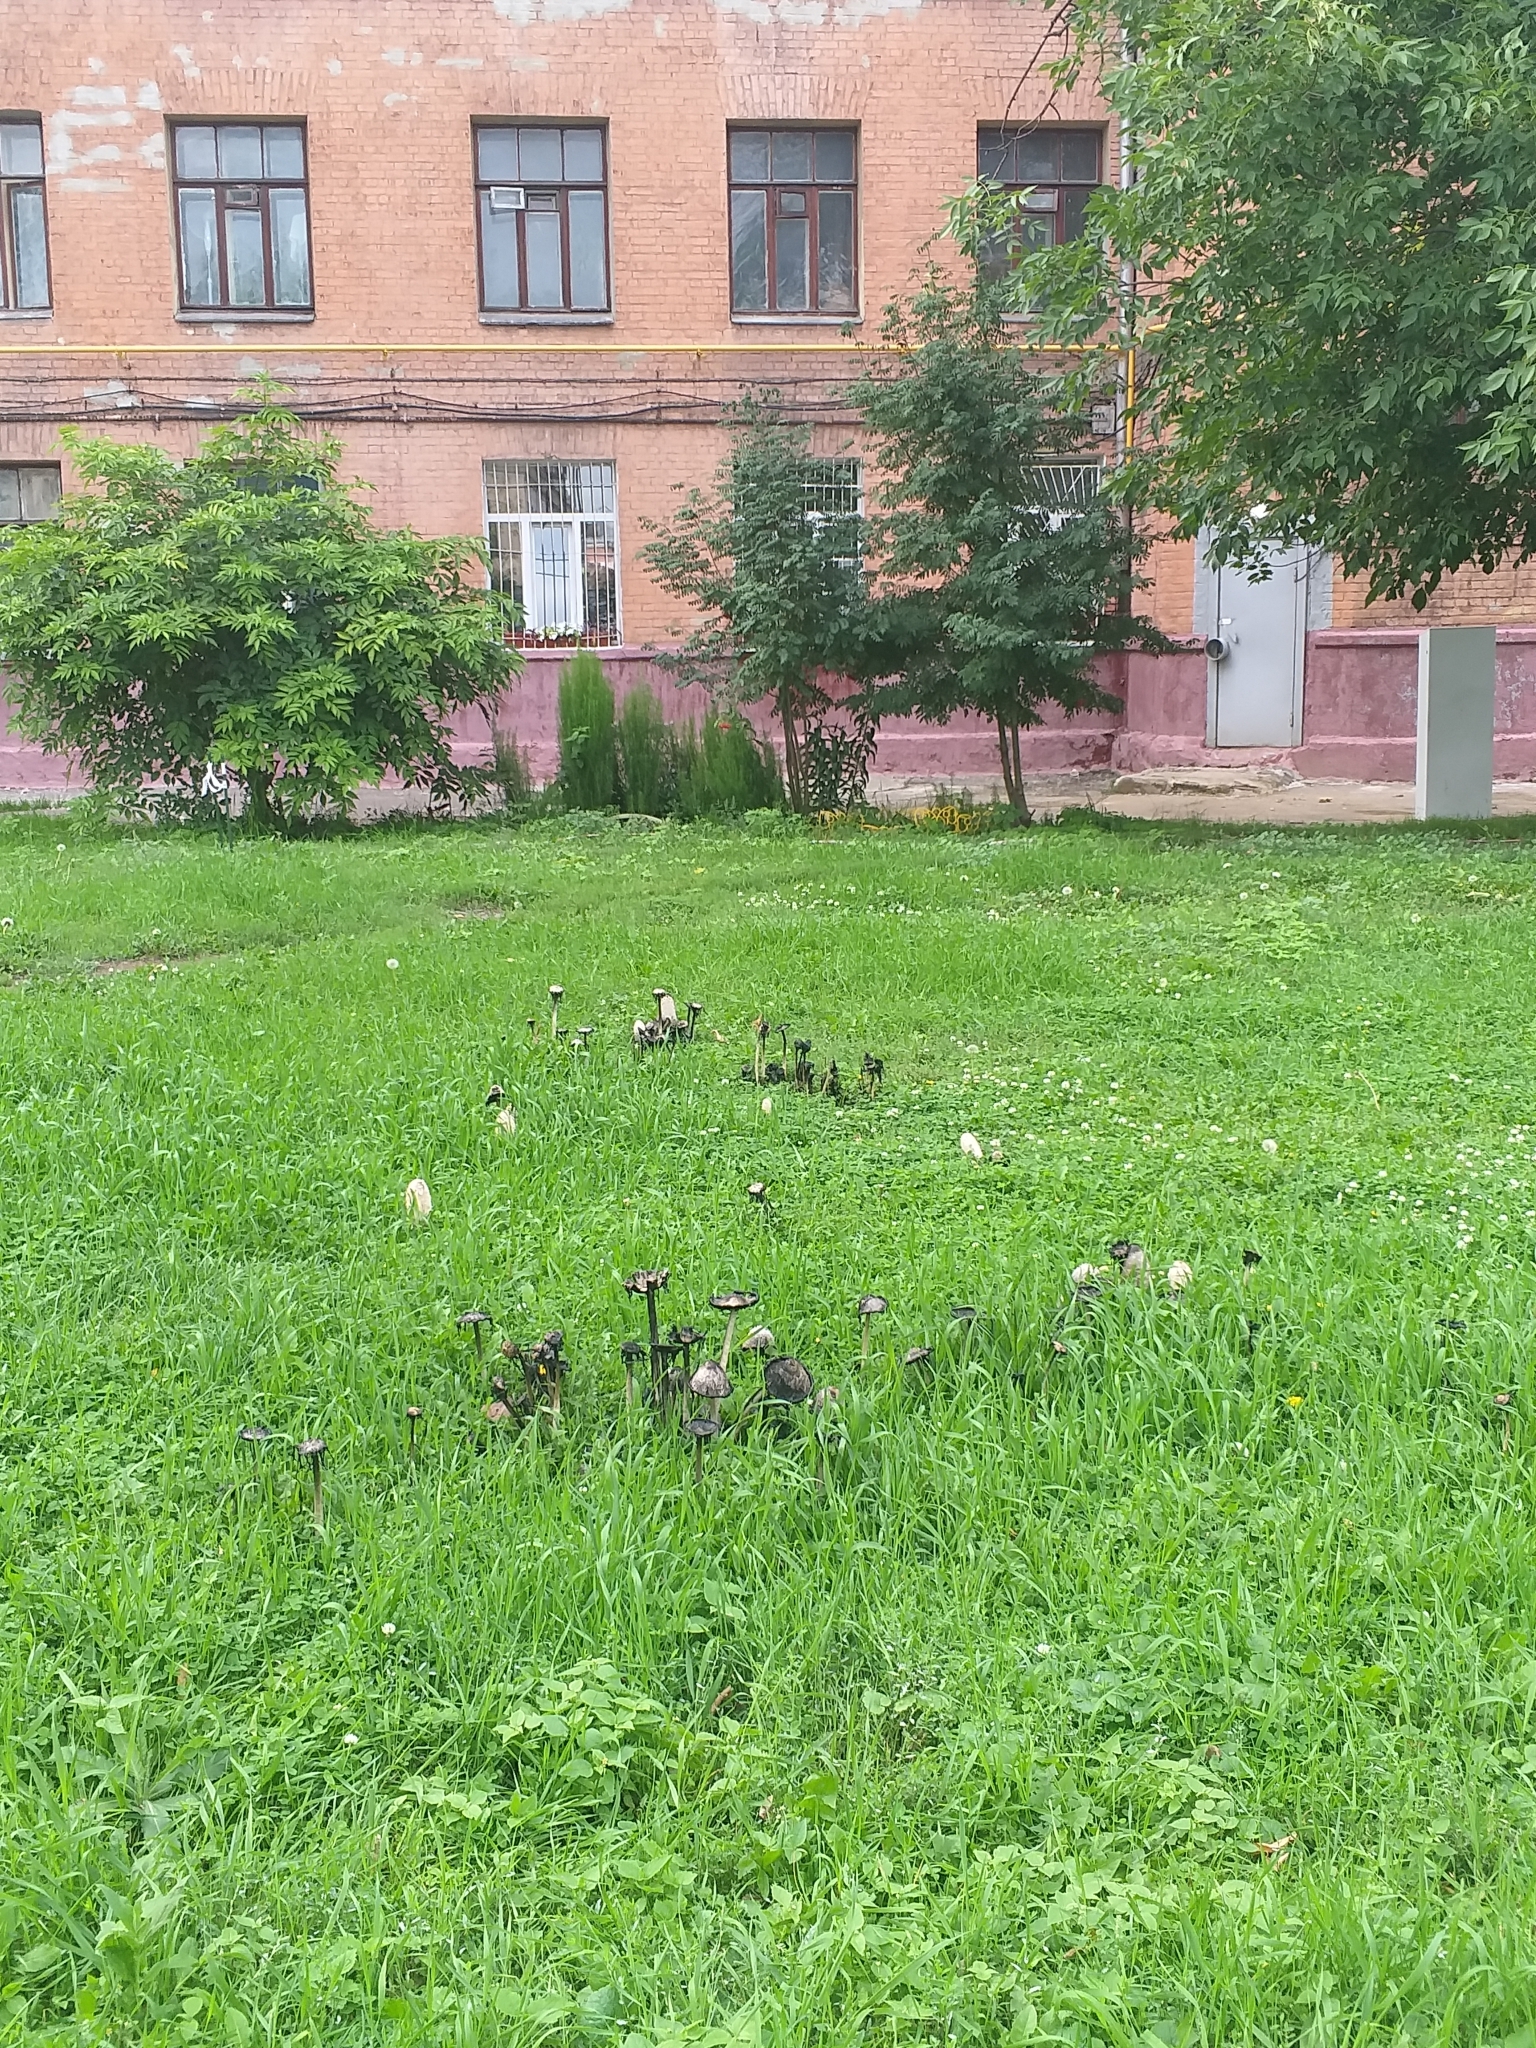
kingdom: Fungi
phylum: Basidiomycota
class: Agaricomycetes
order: Agaricales
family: Agaricaceae
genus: Coprinus
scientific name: Coprinus comatus
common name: Lawyer's wig
